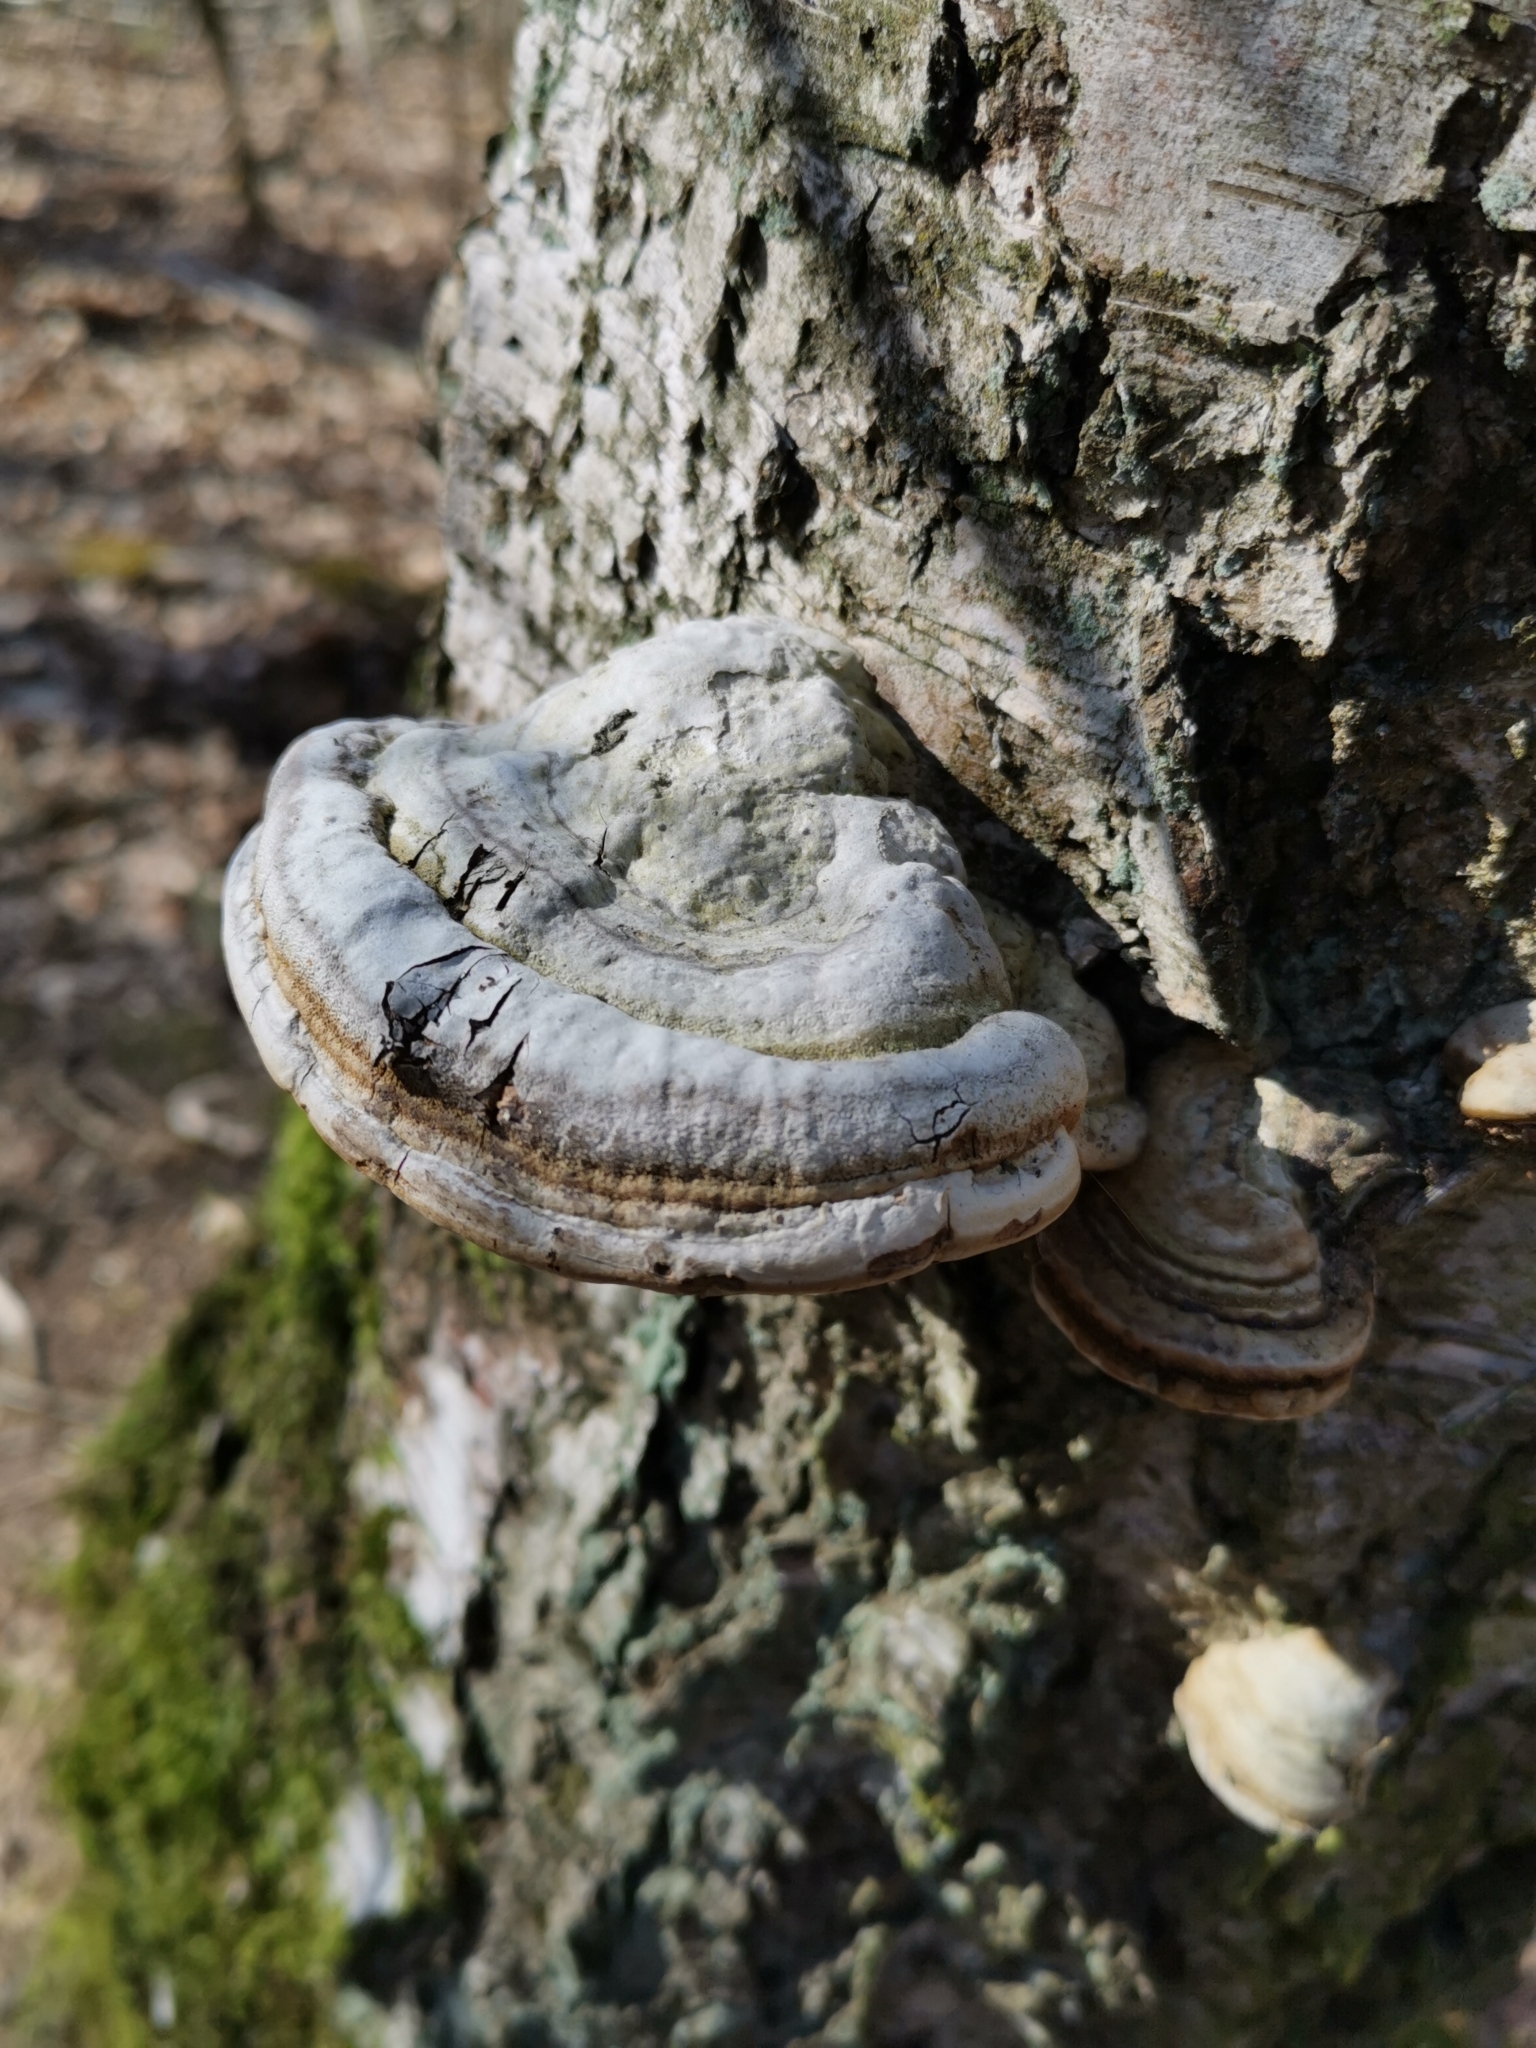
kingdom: Fungi
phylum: Basidiomycota
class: Agaricomycetes
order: Polyporales
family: Polyporaceae
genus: Fomes
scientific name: Fomes fomentarius
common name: Hoof fungus
